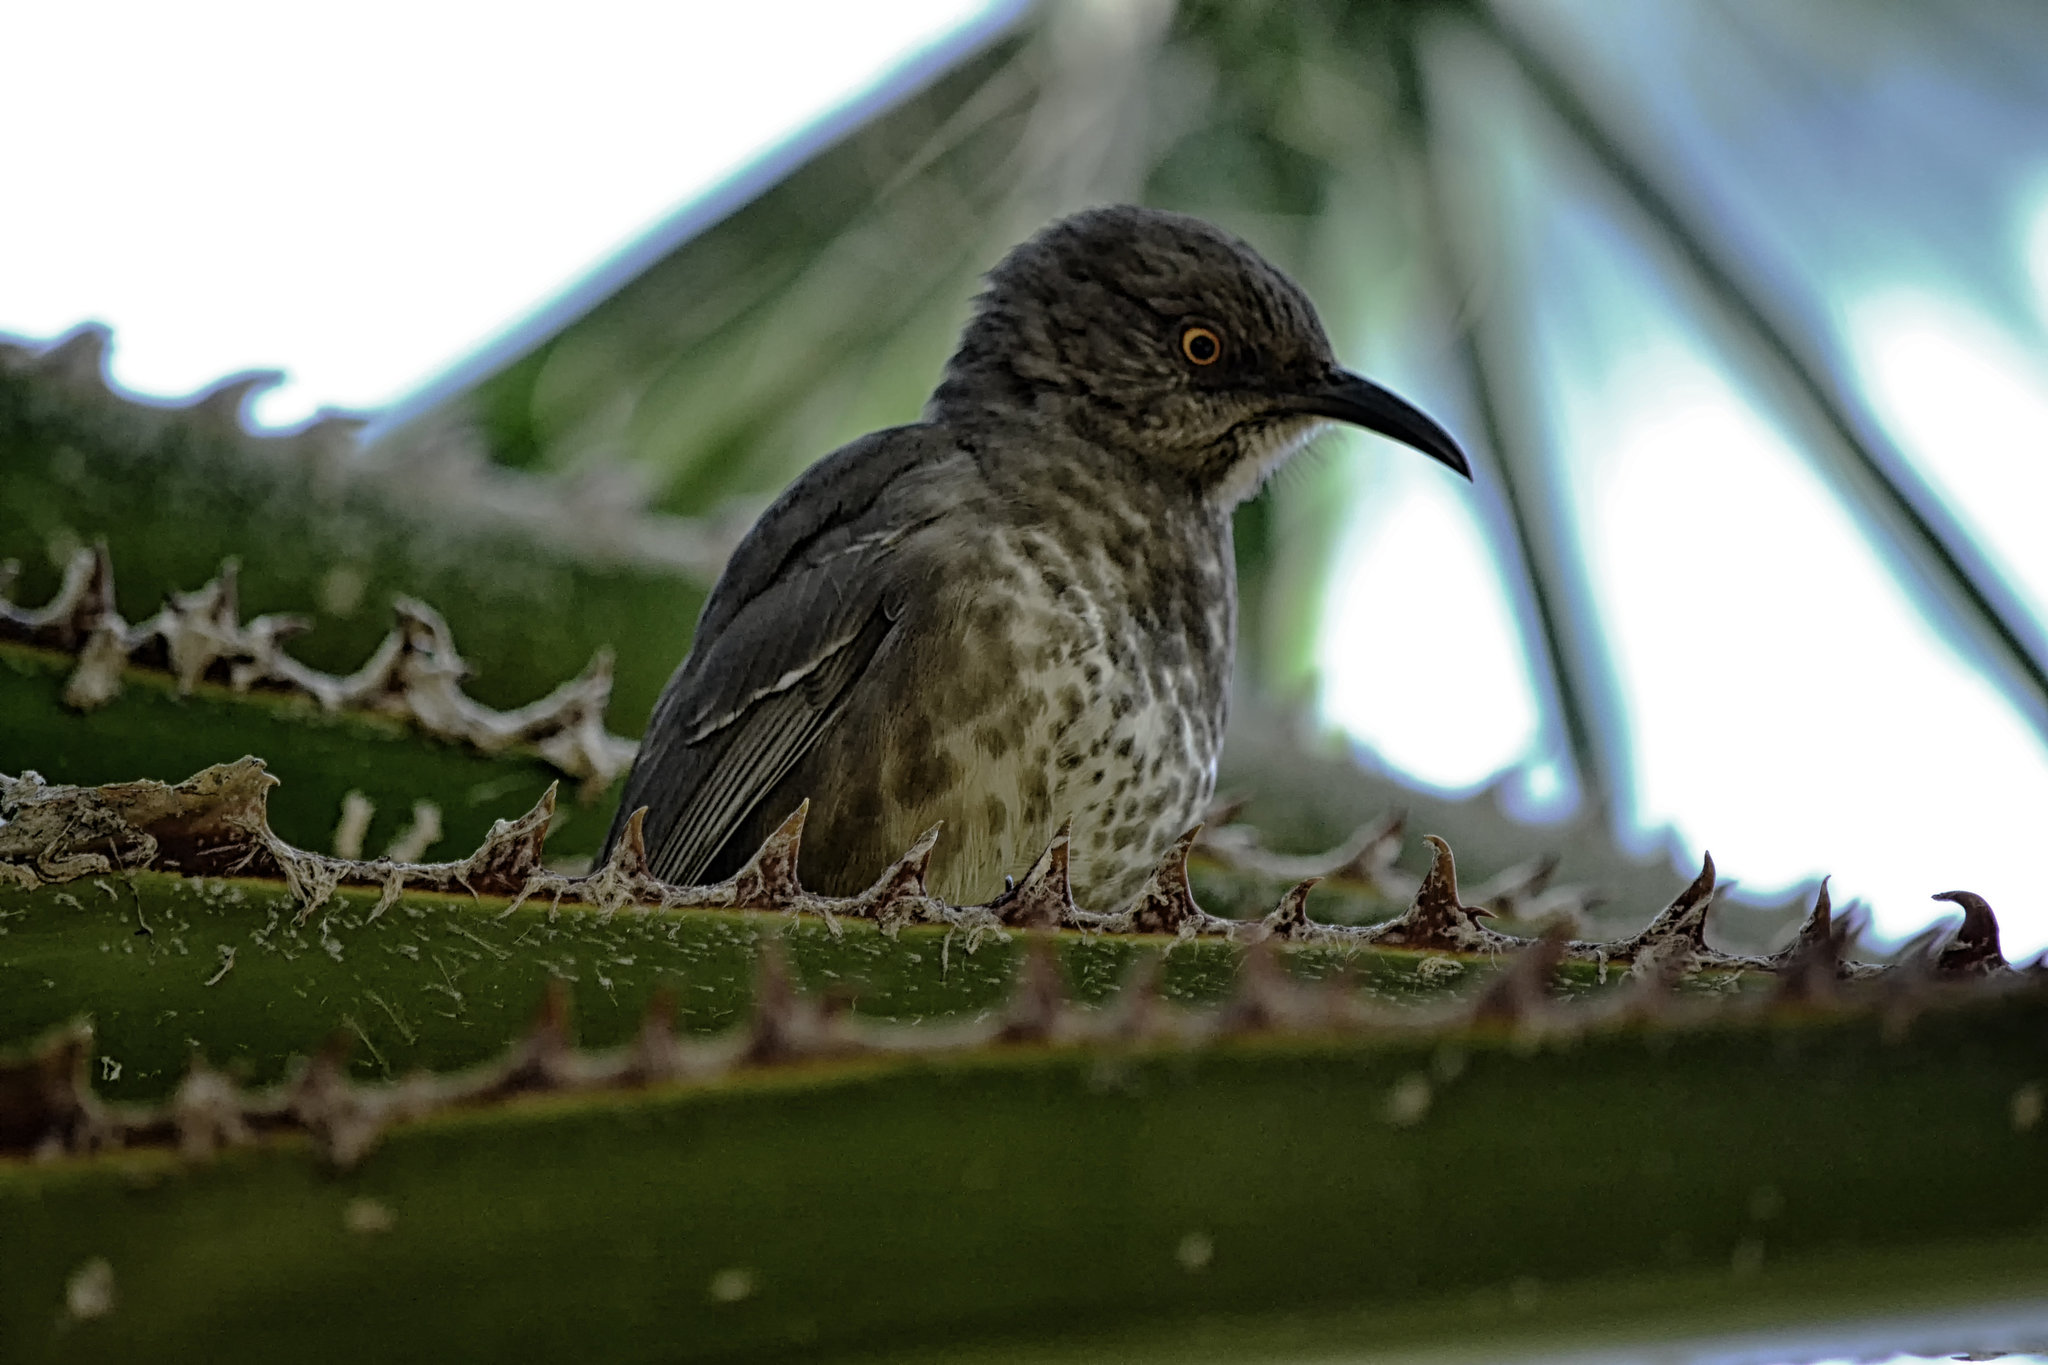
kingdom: Animalia
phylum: Chordata
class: Aves
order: Passeriformes
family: Mimidae
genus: Toxostoma
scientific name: Toxostoma curvirostre
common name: Curve-billed thrasher
